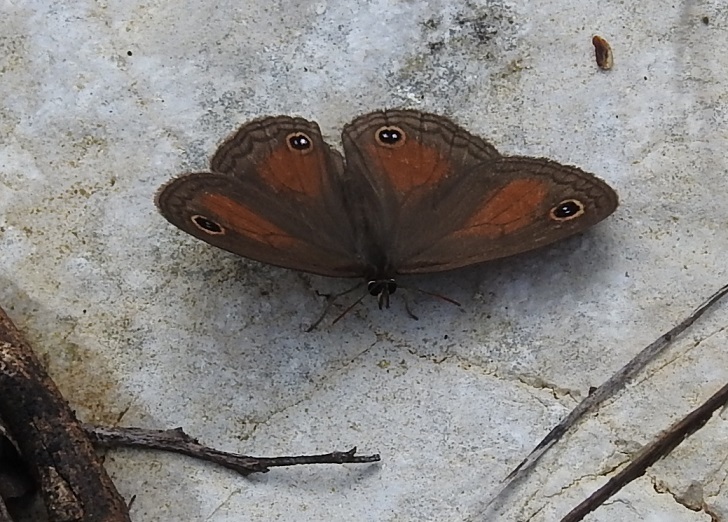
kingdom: Animalia
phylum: Arthropoda
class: Insecta
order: Lepidoptera
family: Nymphalidae
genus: Euptychia
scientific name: Euptychia
